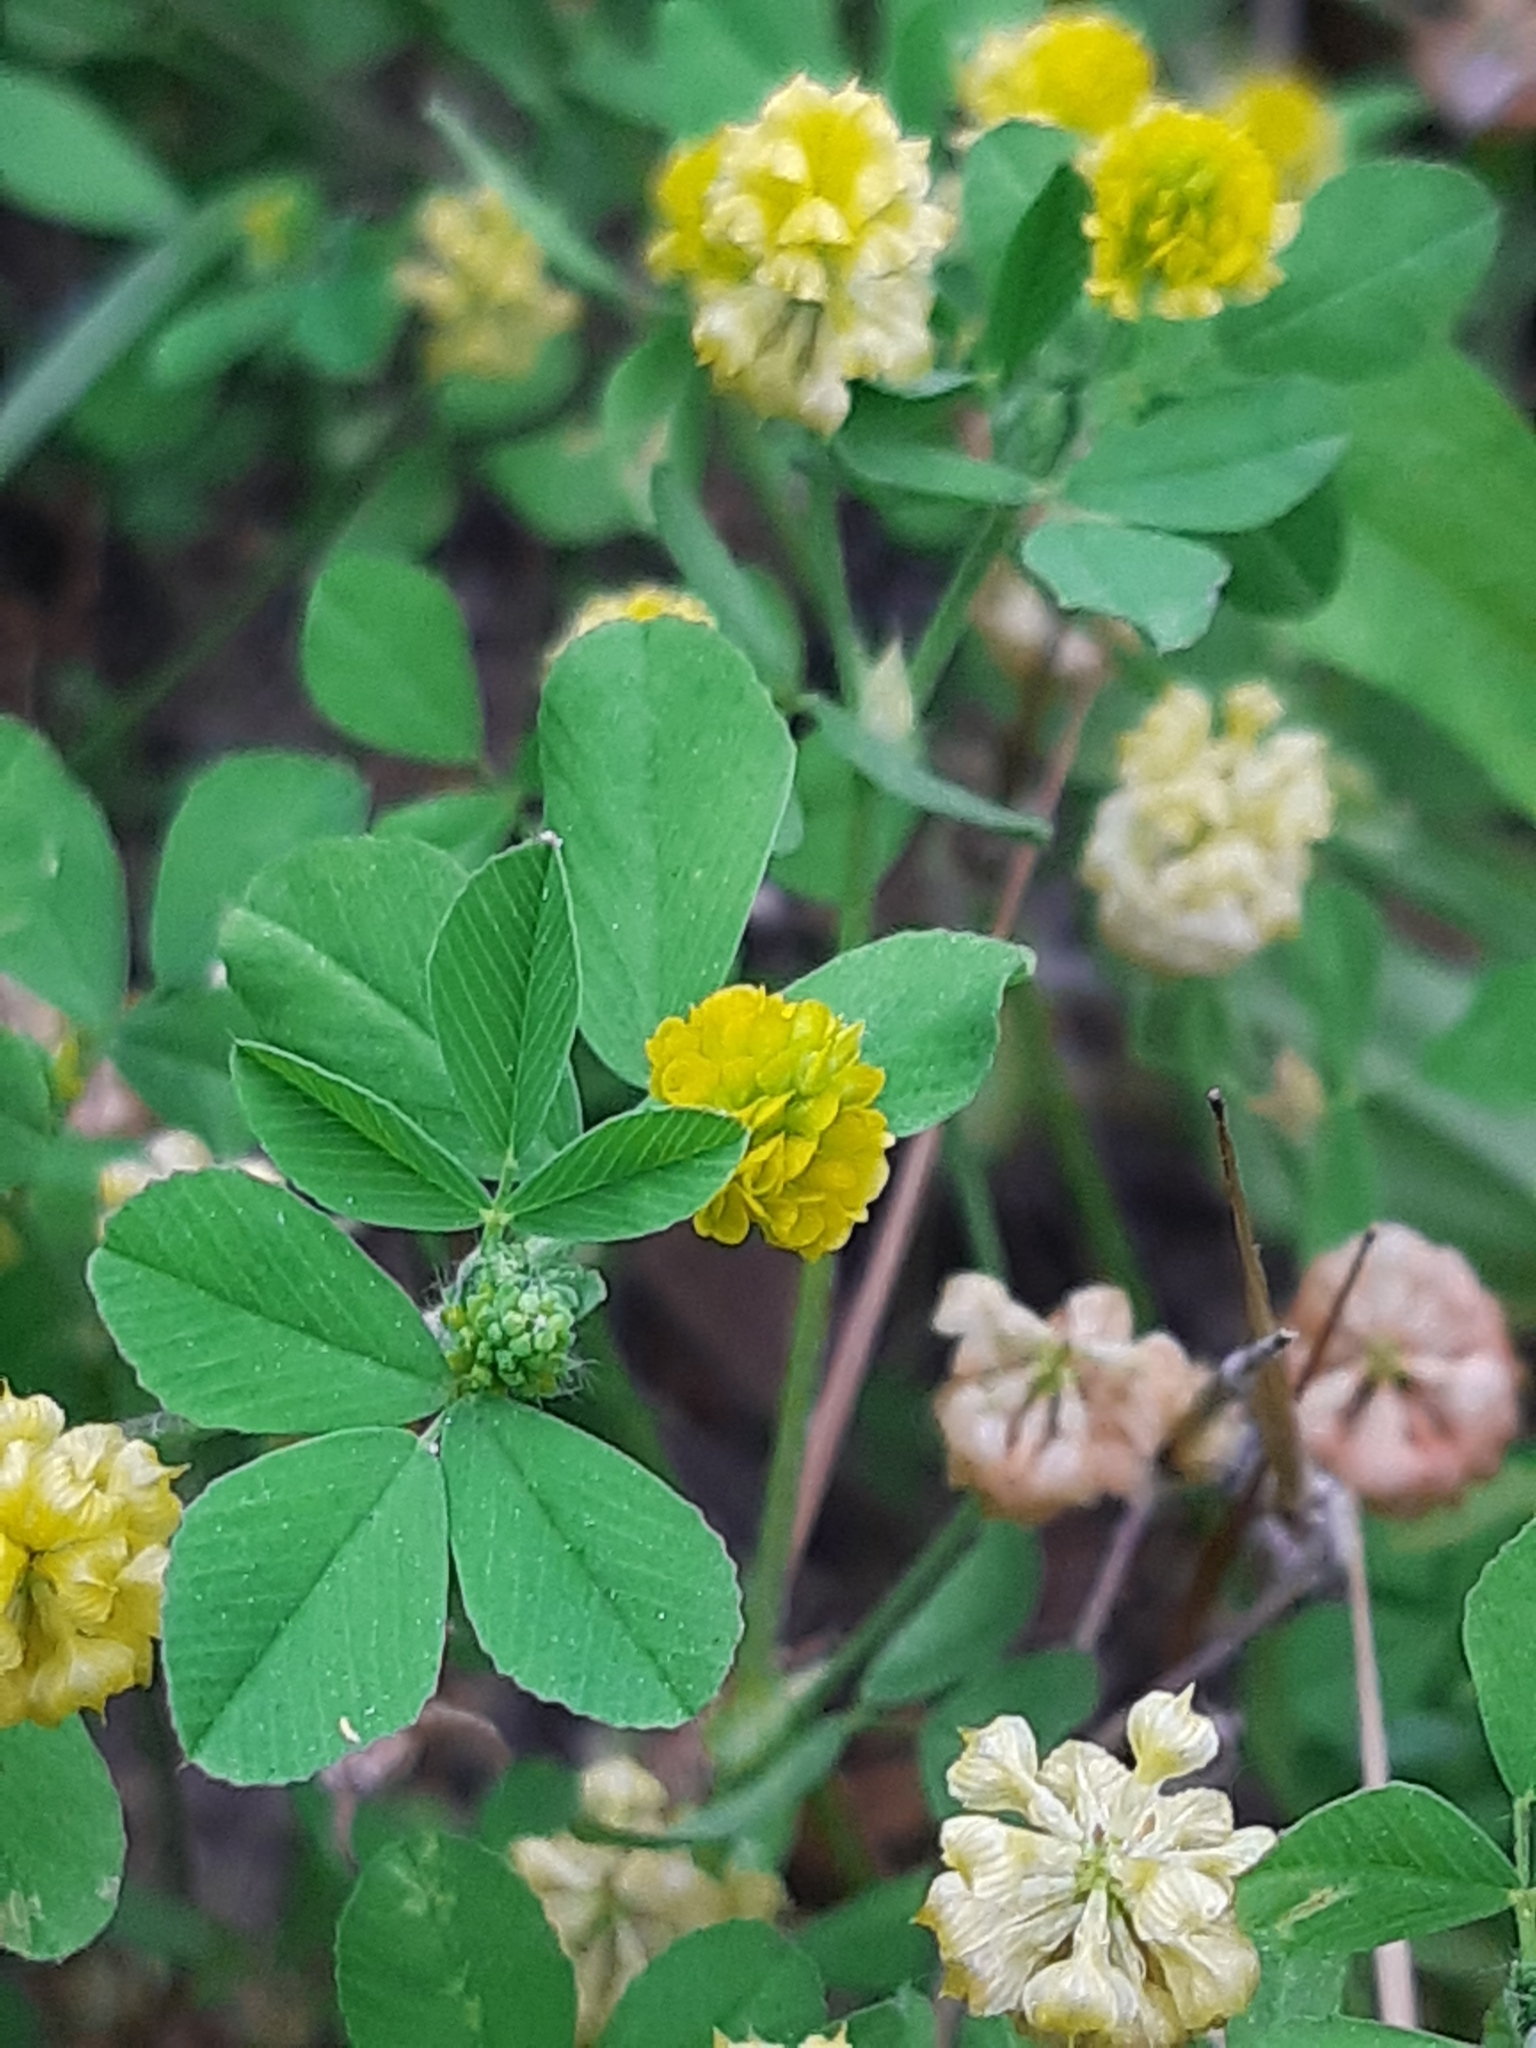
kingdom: Plantae
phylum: Tracheophyta
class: Magnoliopsida
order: Fabales
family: Fabaceae
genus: Trifolium
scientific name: Trifolium campestre
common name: Field clover
